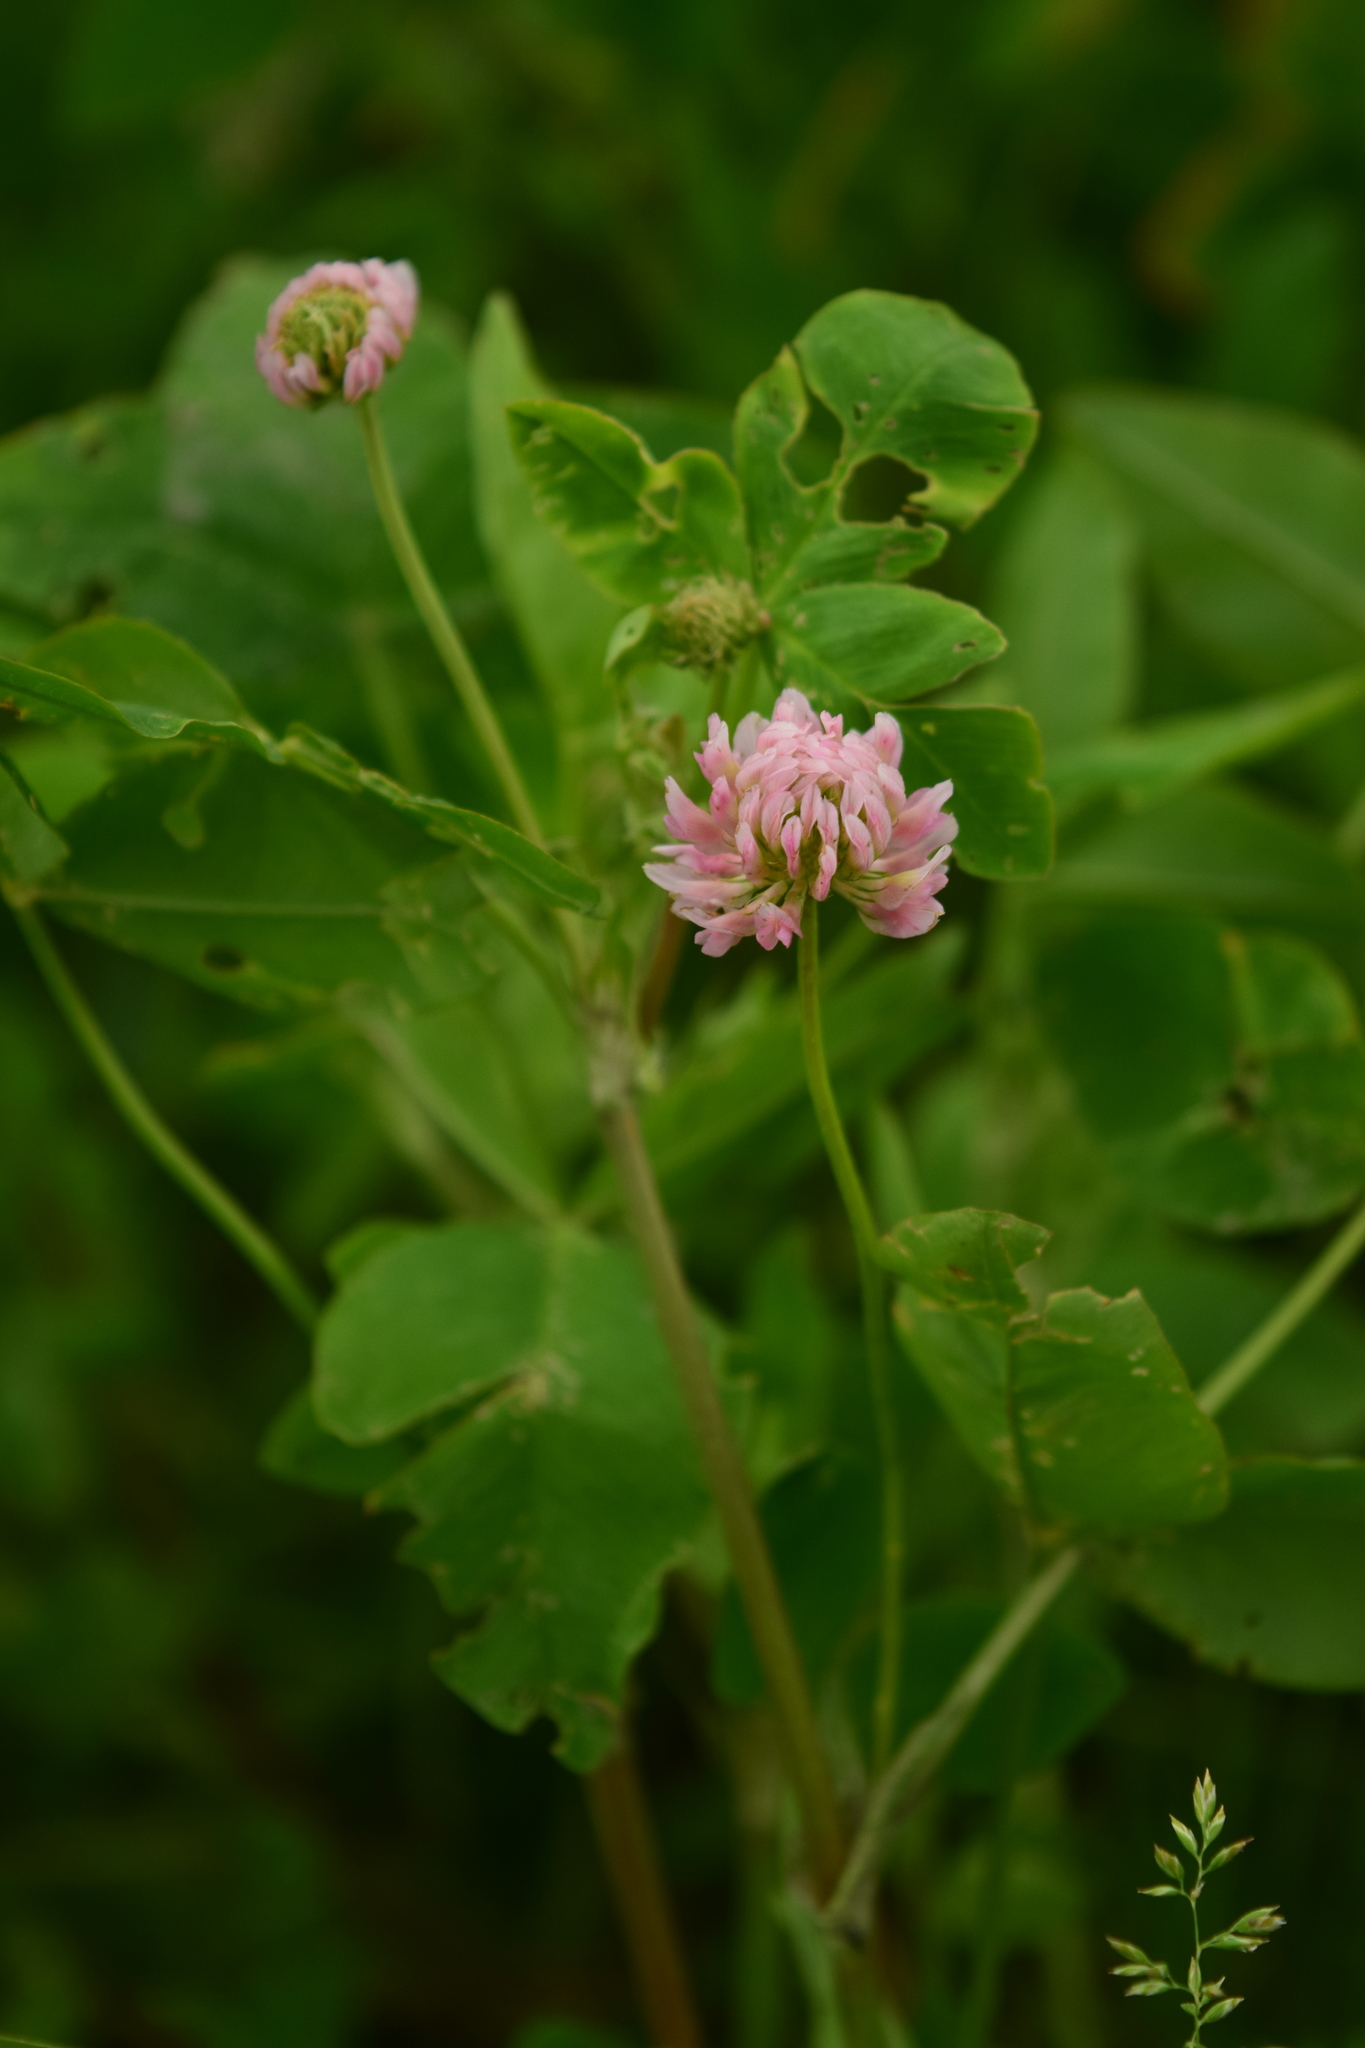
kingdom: Plantae
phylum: Tracheophyta
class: Magnoliopsida
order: Fabales
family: Fabaceae
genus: Trifolium
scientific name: Trifolium hybridum
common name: Alsike clover
